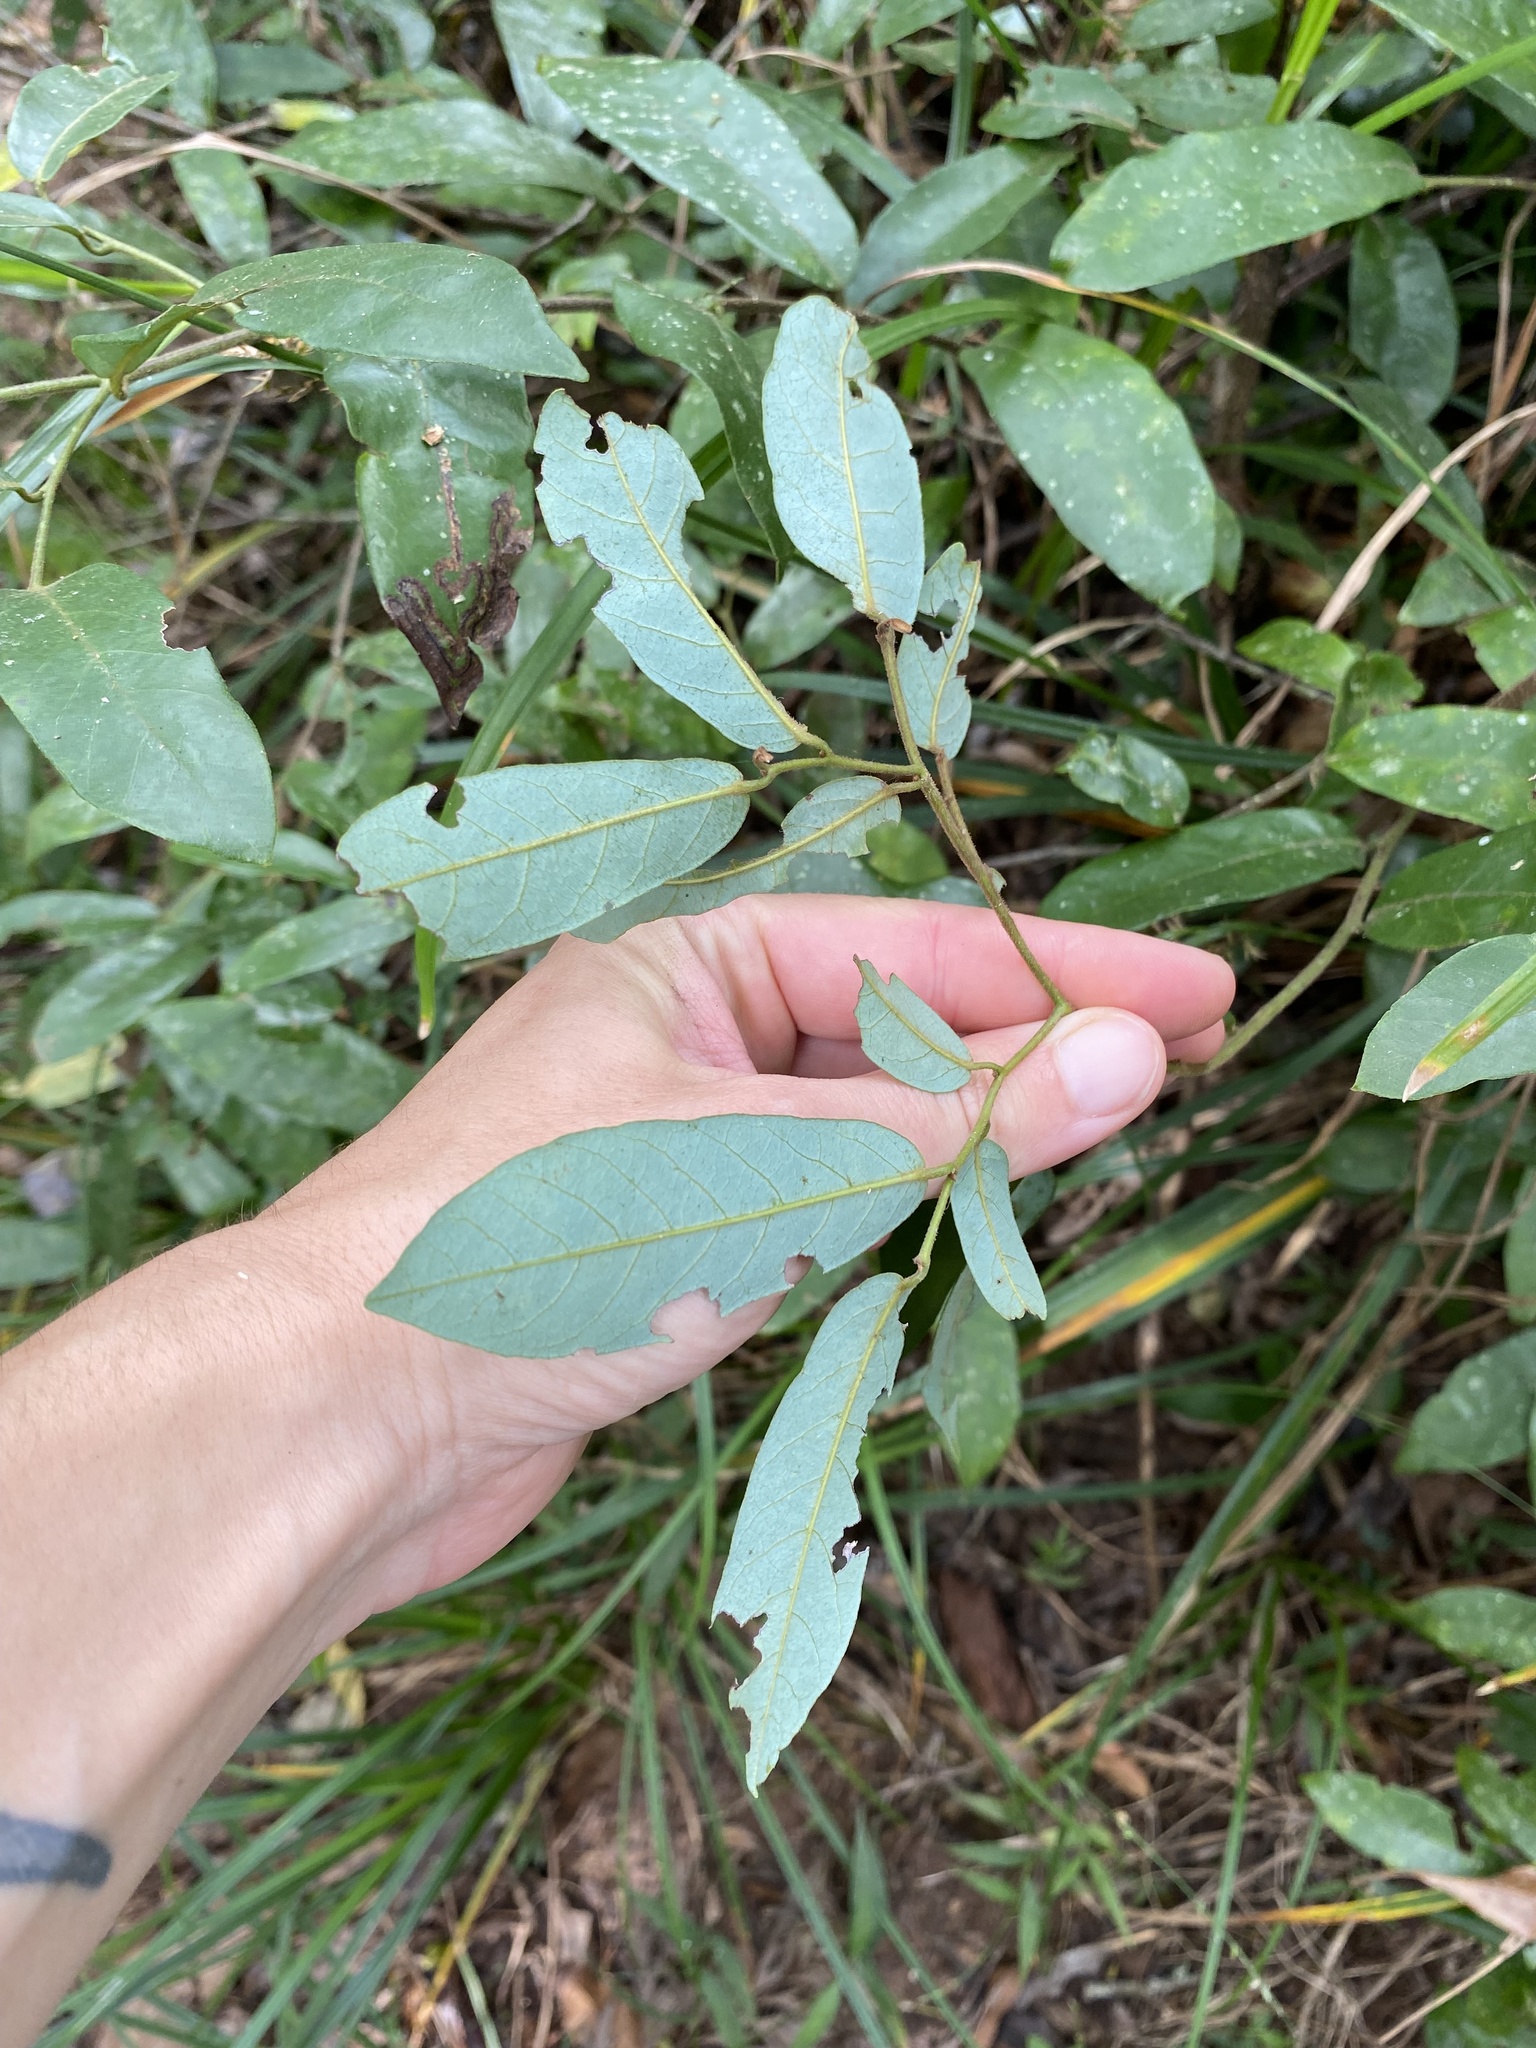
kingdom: Plantae
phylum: Tracheophyta
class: Magnoliopsida
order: Magnoliales
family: Annonaceae
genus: Monanthotaxis
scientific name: Monanthotaxis caffra
